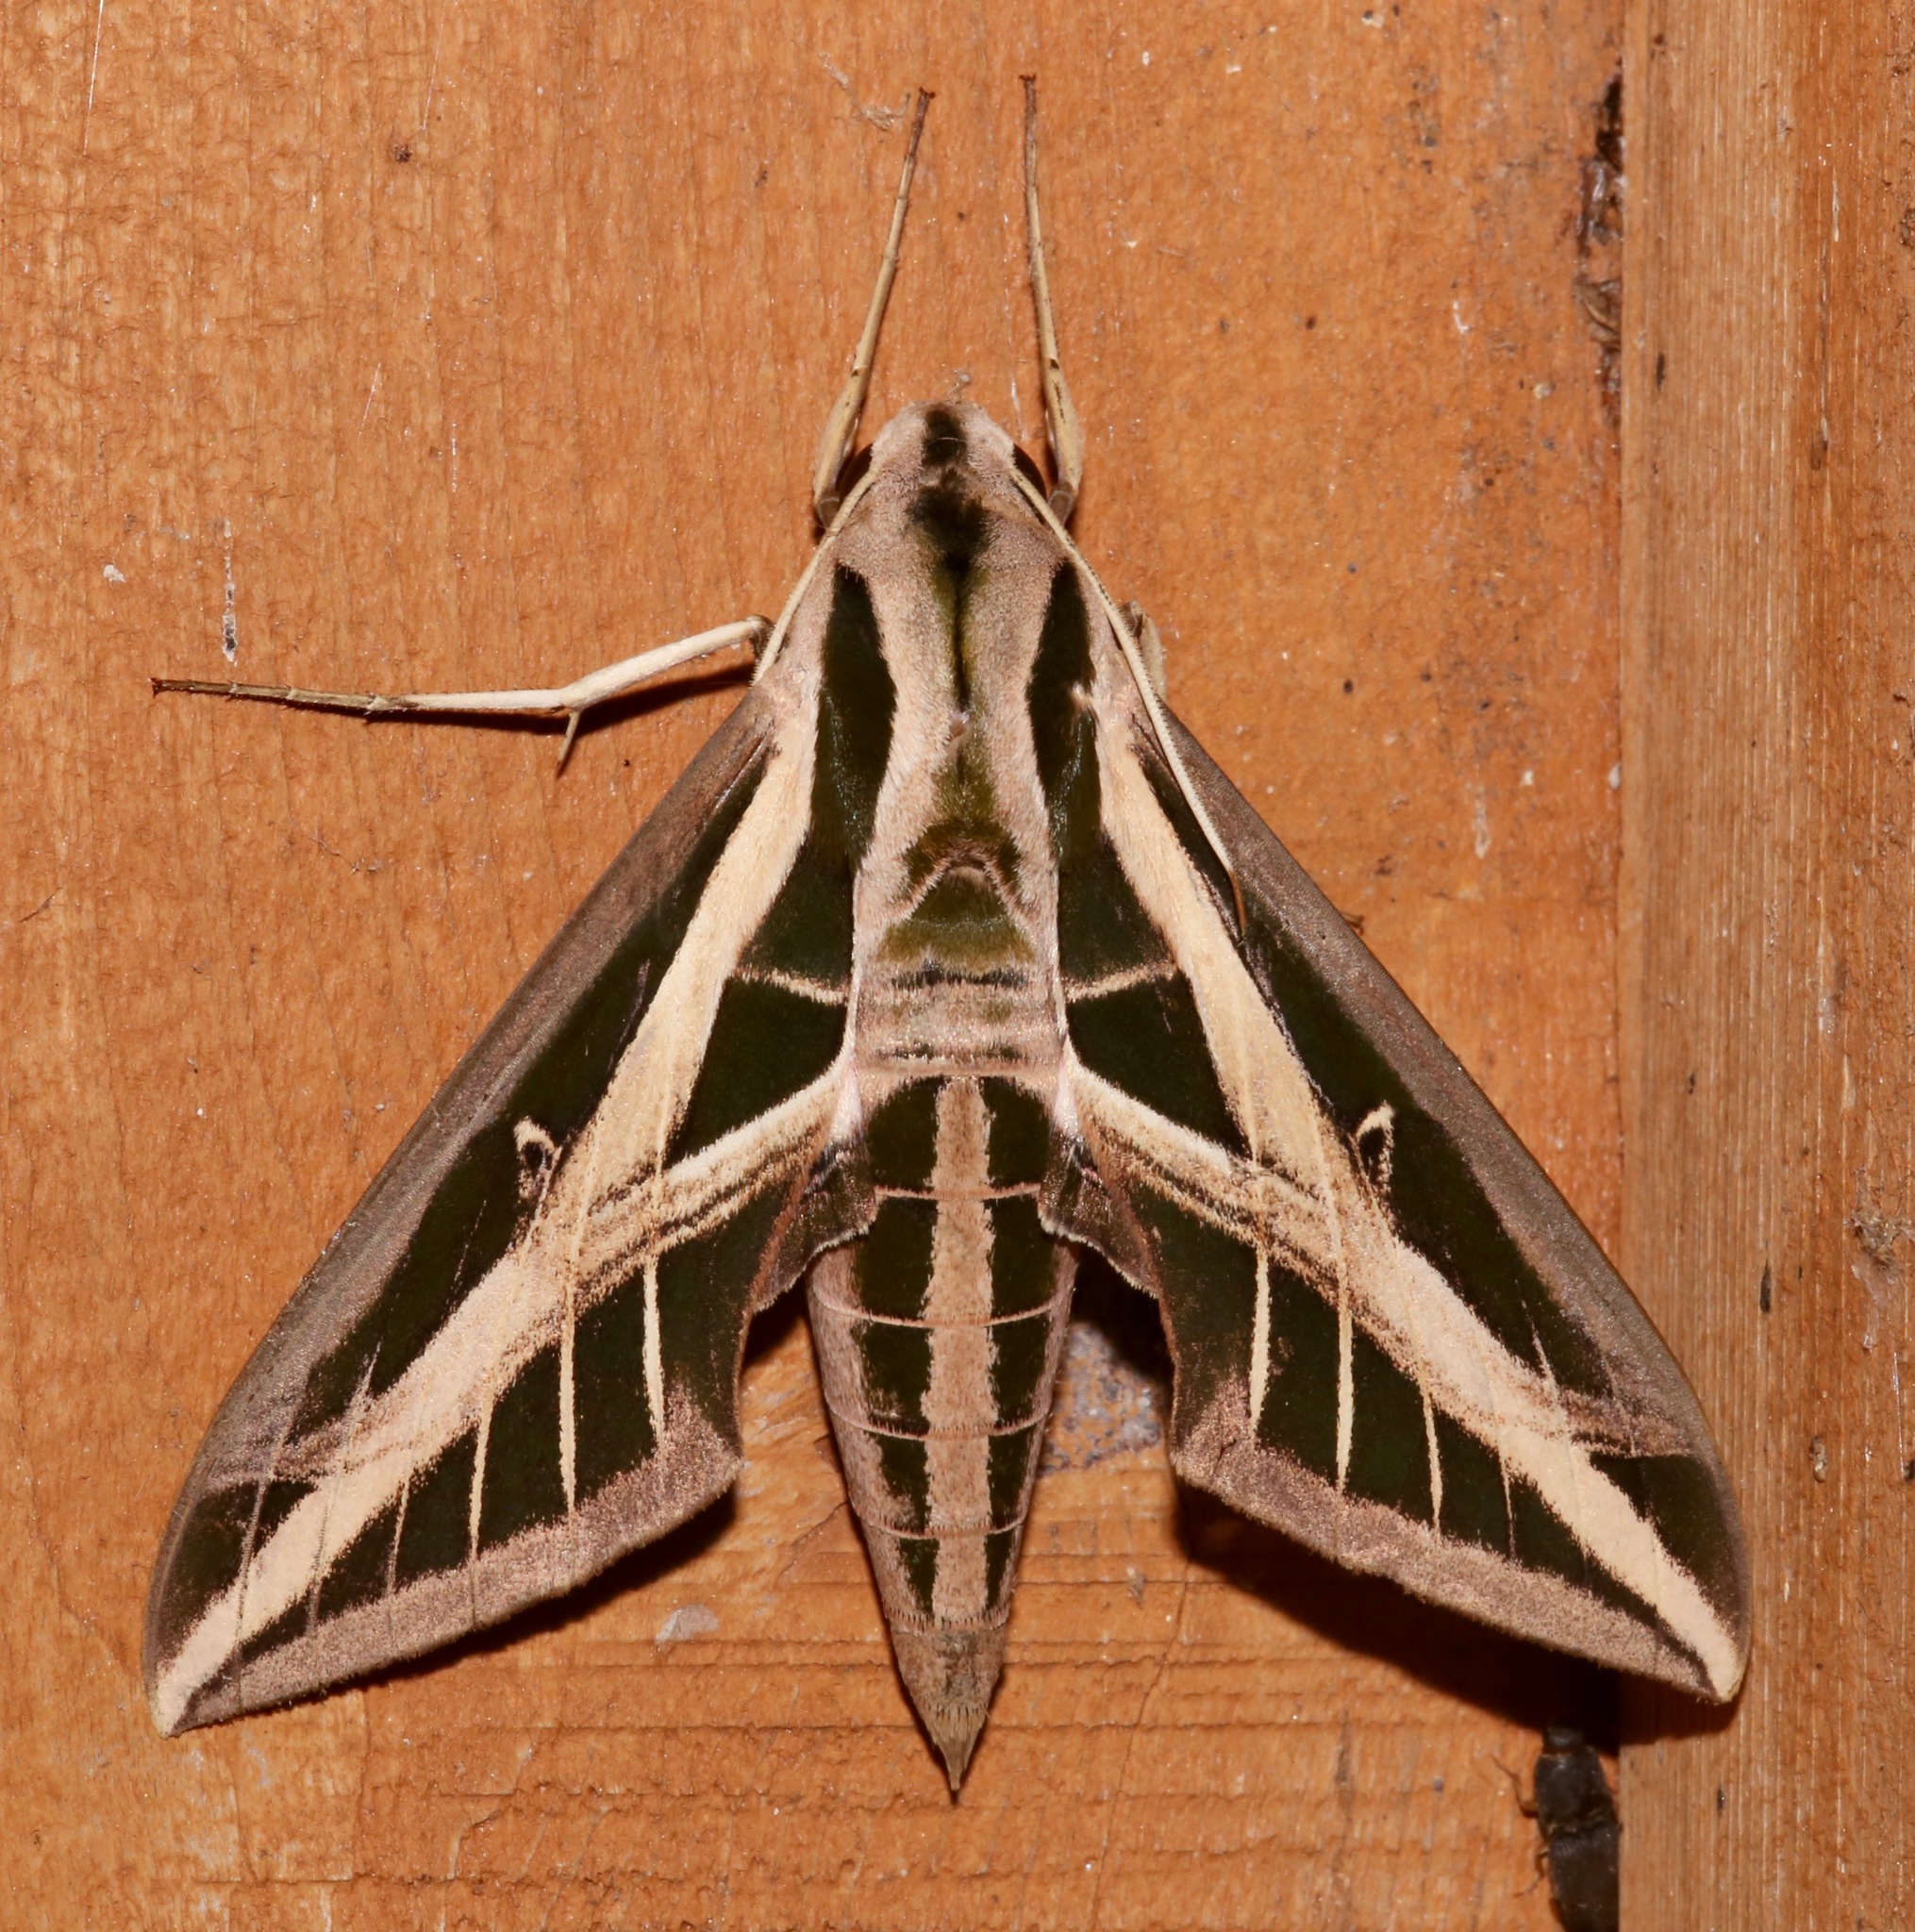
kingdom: Animalia
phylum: Arthropoda
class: Insecta
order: Lepidoptera
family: Sphingidae
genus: Eumorpha
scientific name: Eumorpha fasciatus
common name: Banded sphinx
